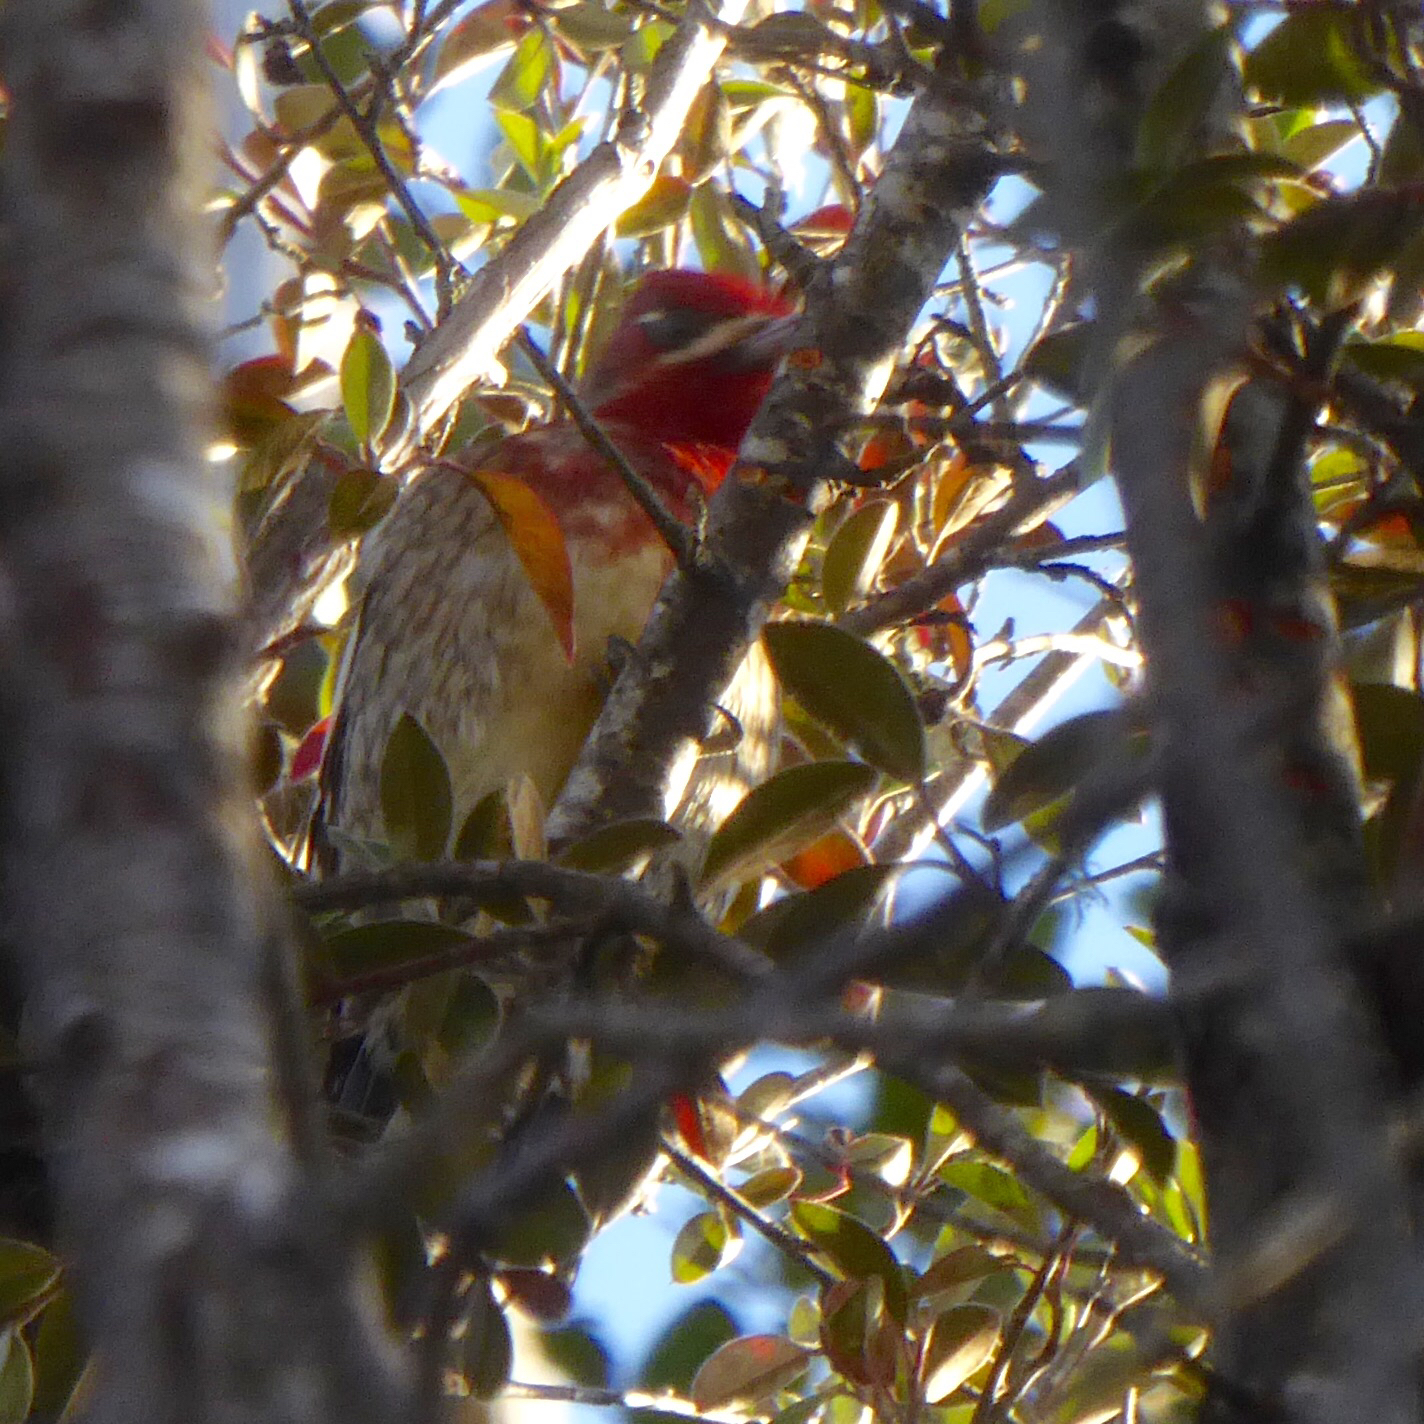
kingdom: Animalia
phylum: Chordata
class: Aves
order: Piciformes
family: Picidae
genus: Sphyrapicus
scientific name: Sphyrapicus ruber
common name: Red-breasted sapsucker
